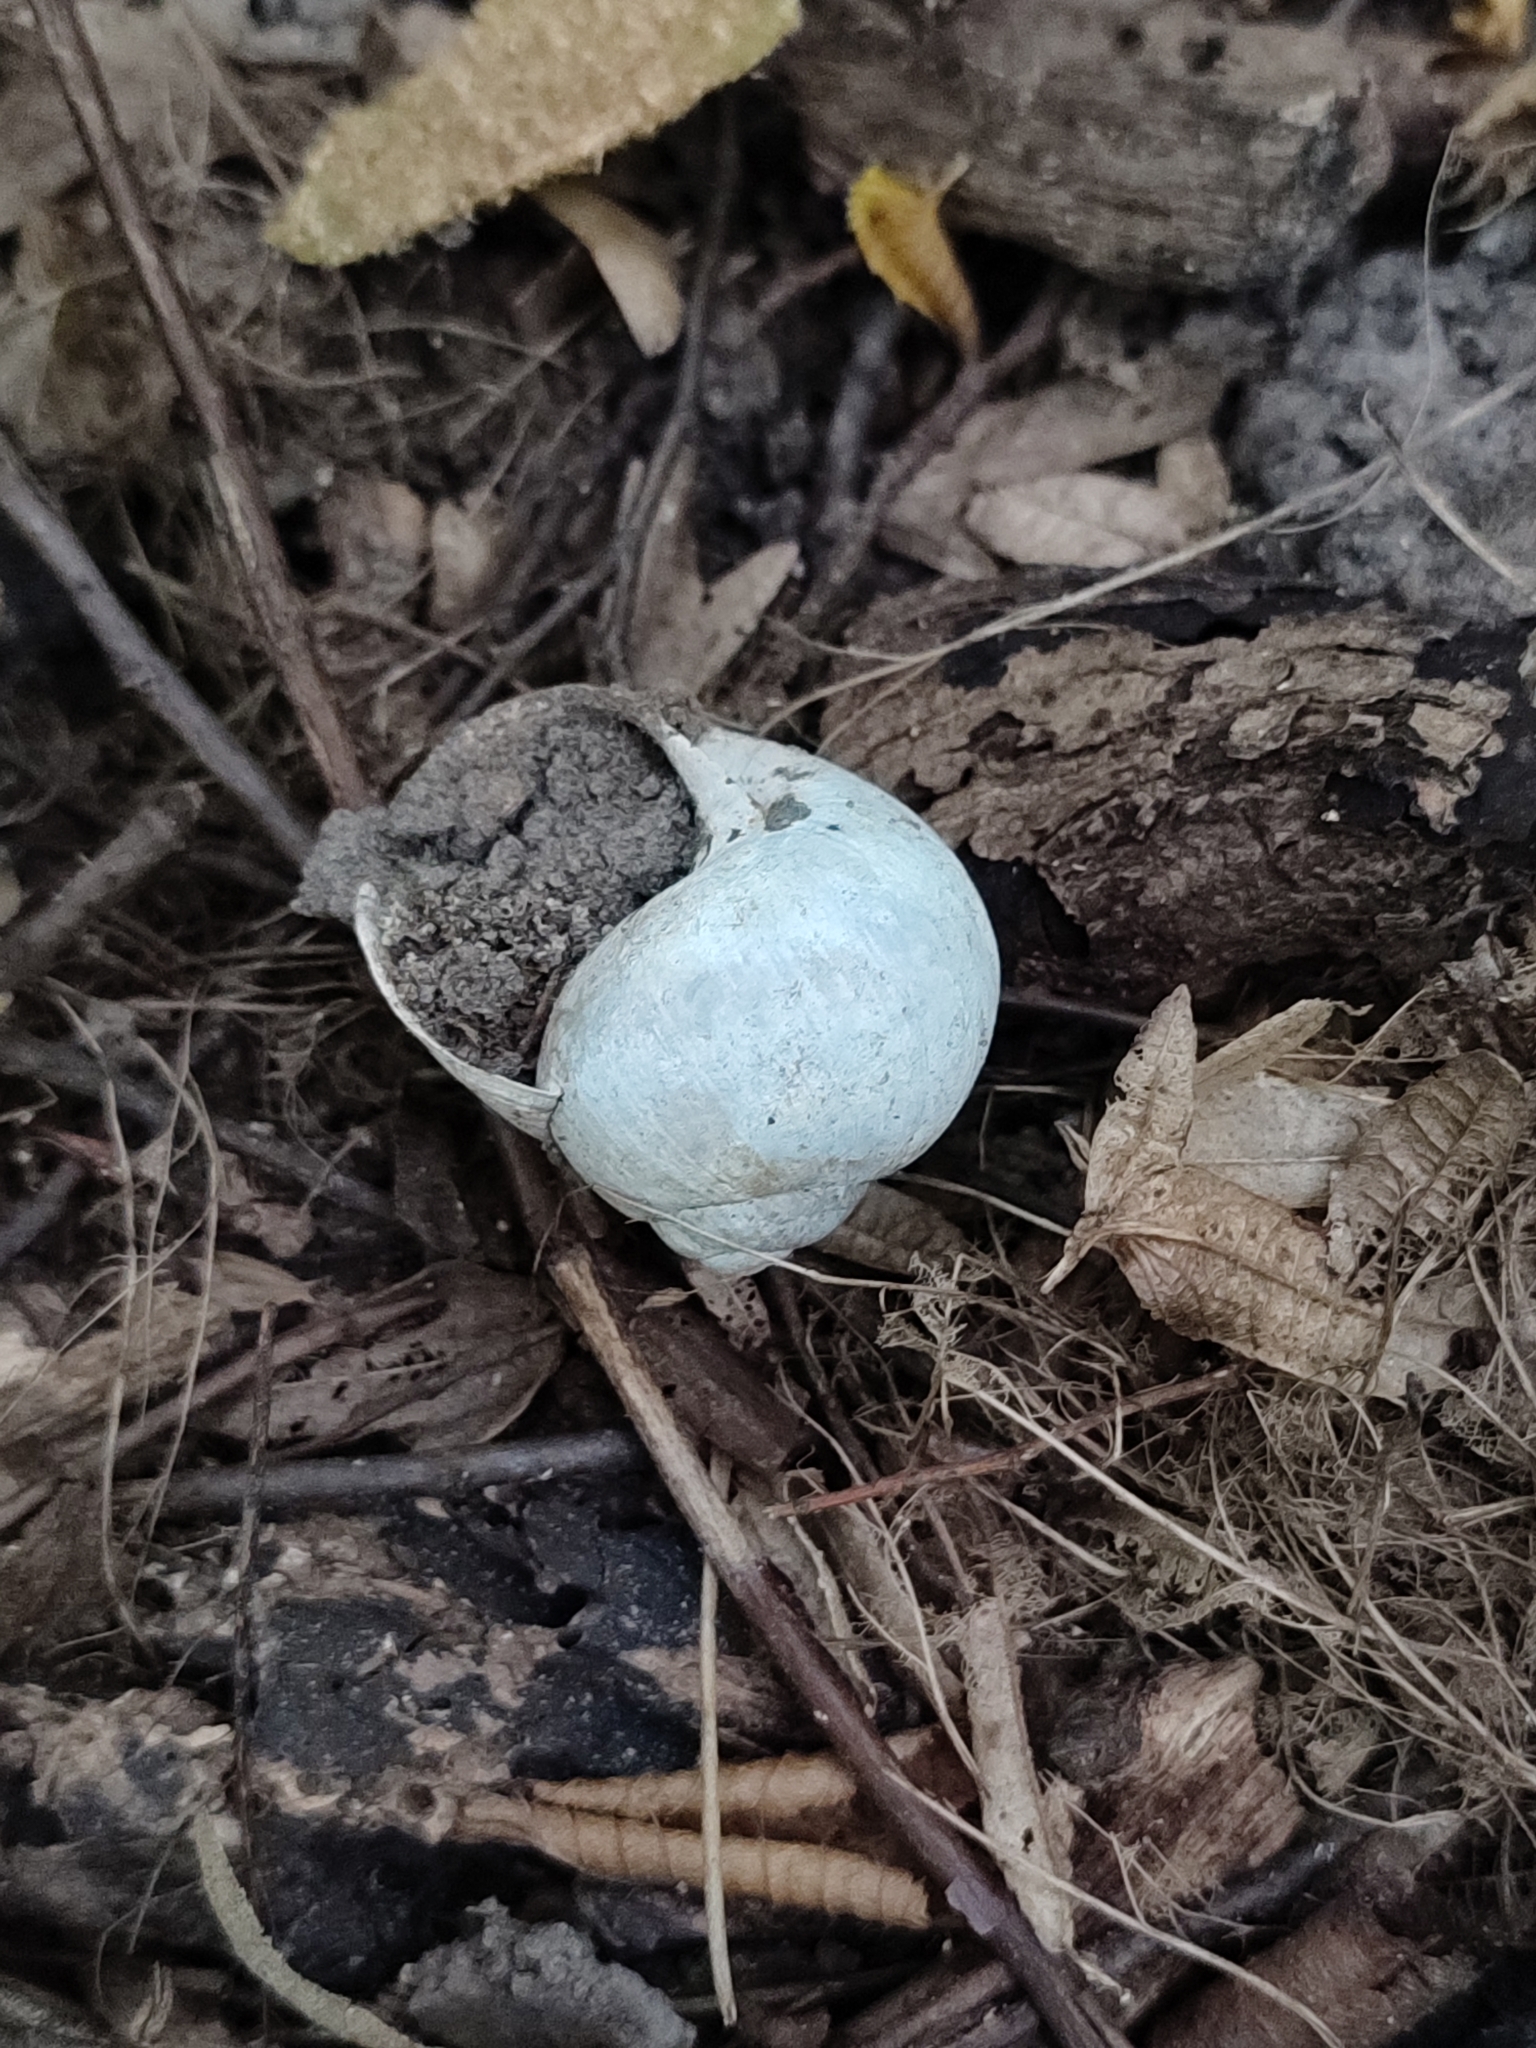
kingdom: Animalia
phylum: Mollusca
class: Gastropoda
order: Stylommatophora
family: Helicidae
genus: Helix
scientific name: Helix pomatia
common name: Roman snail
